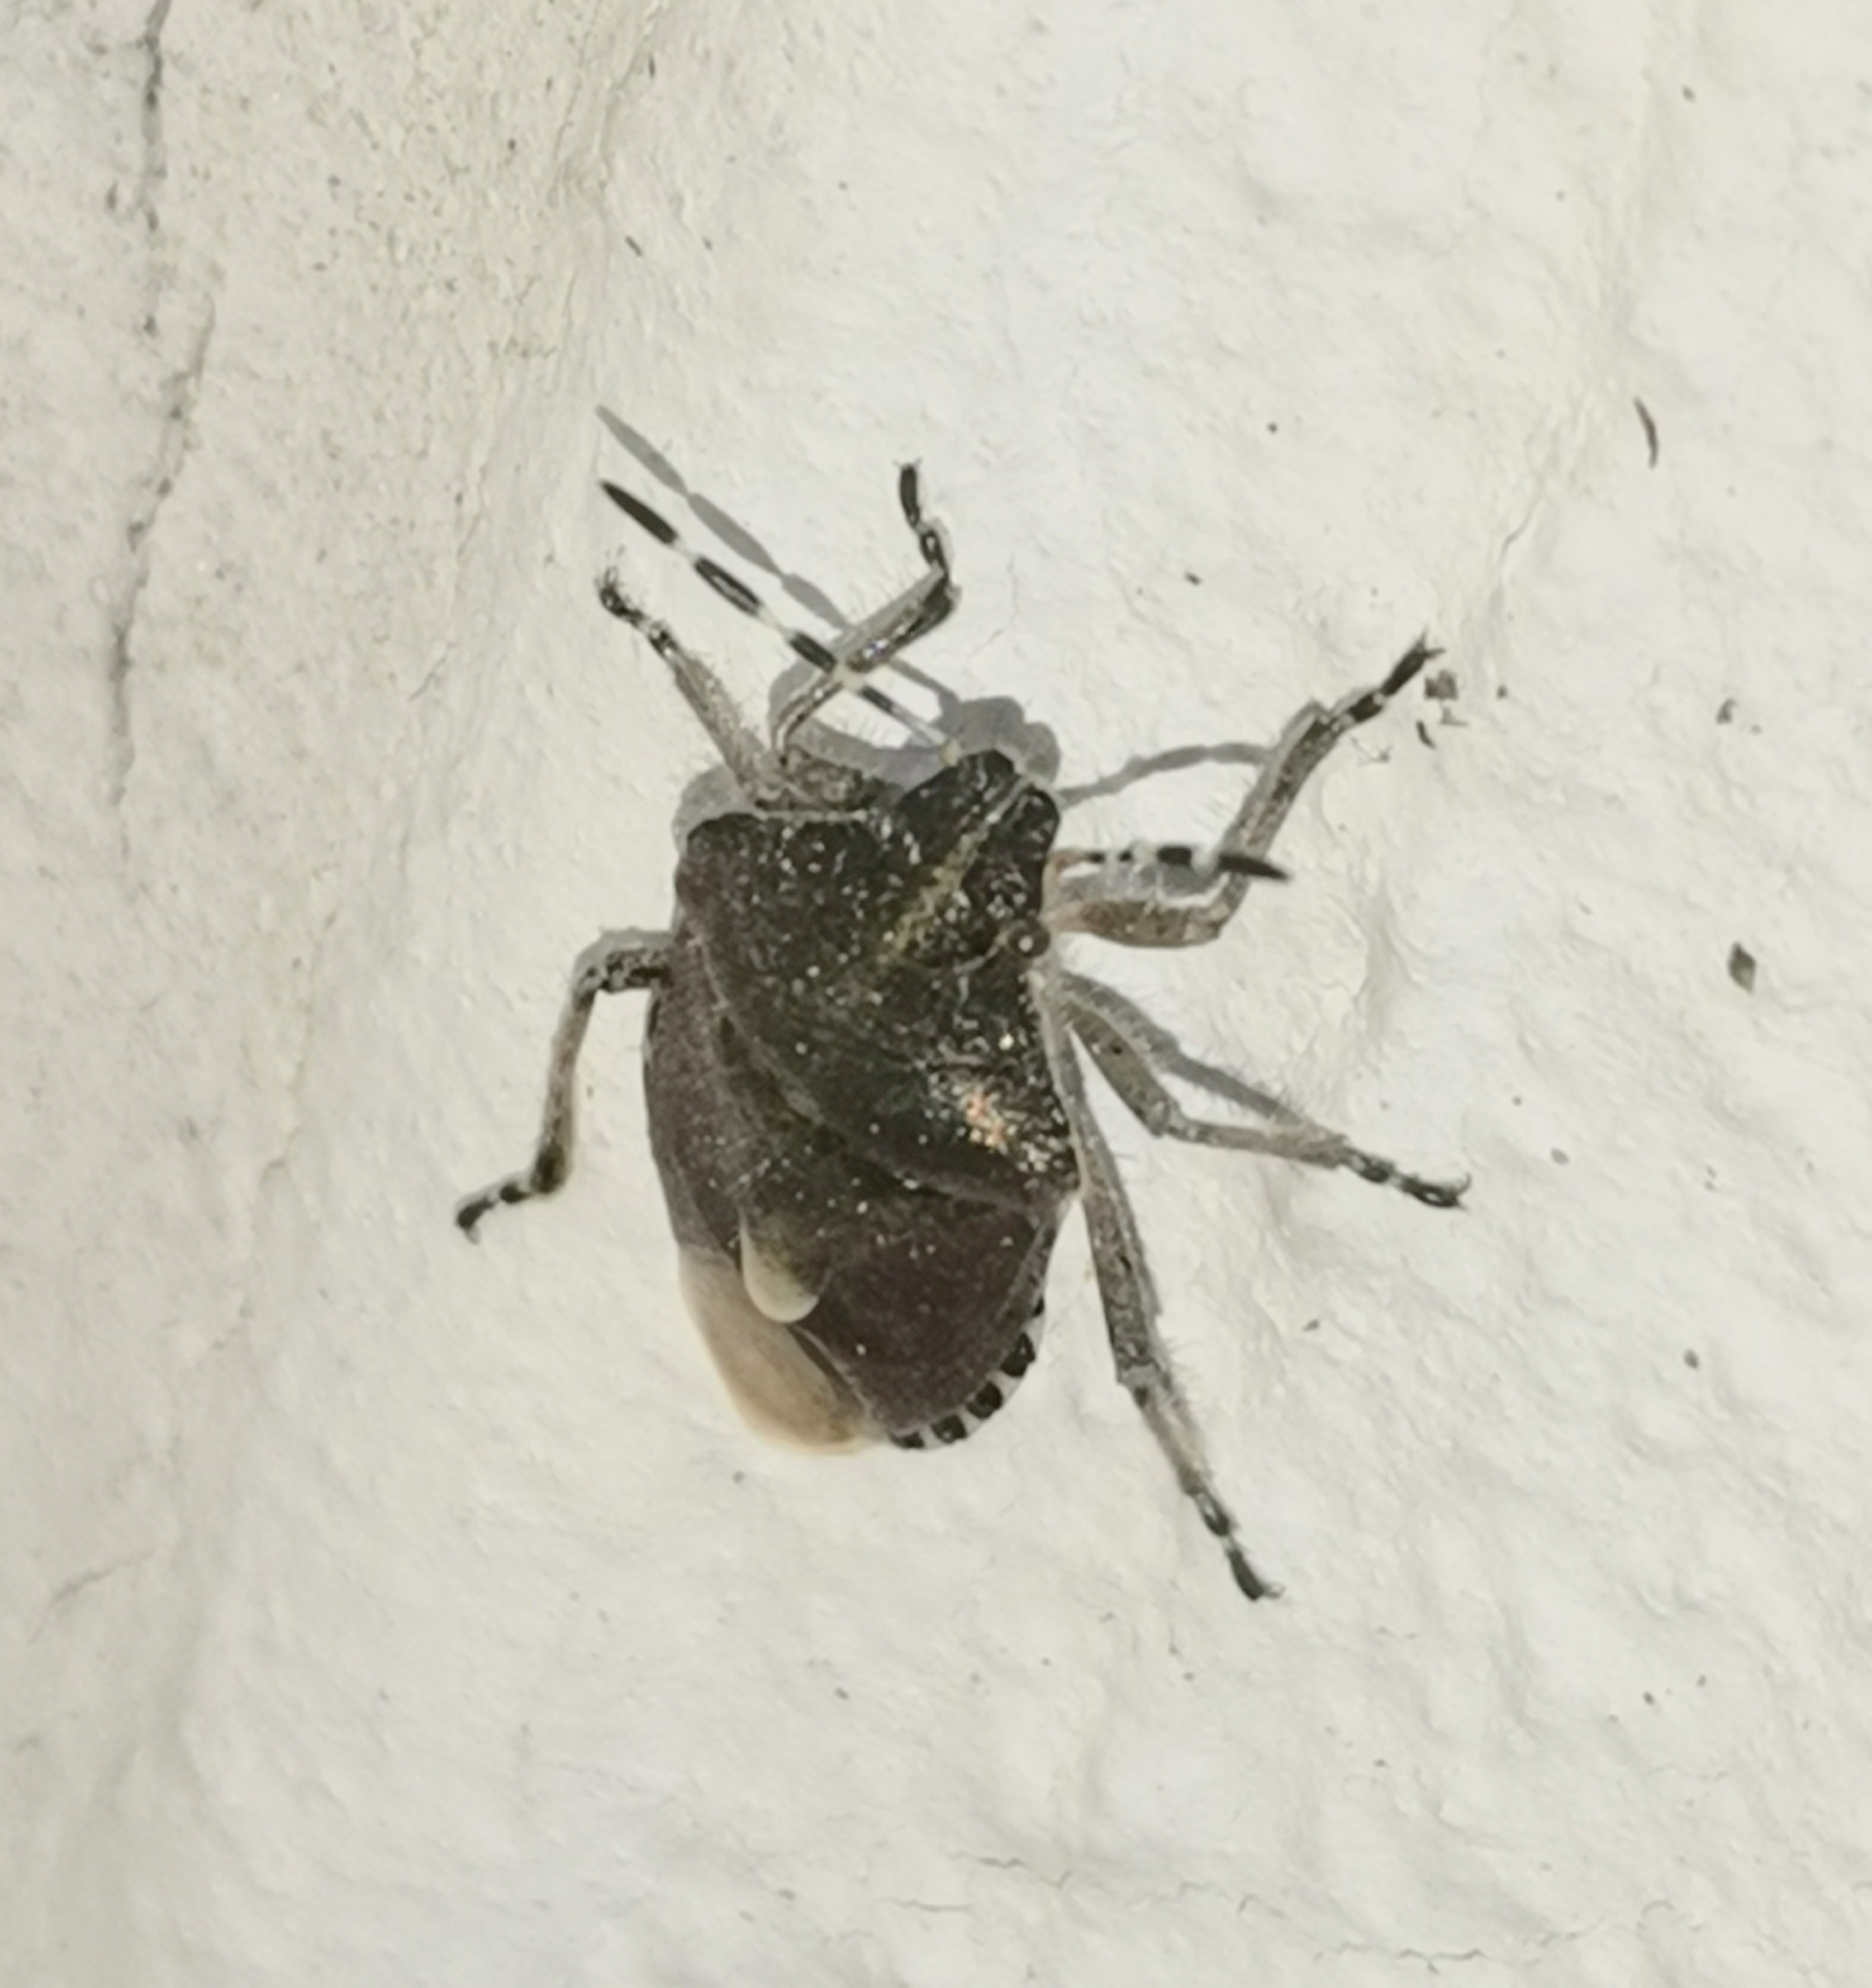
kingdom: Animalia
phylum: Arthropoda
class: Insecta
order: Hemiptera
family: Pentatomidae
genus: Dolycoris
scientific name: Dolycoris baccarum
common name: Sloe bug
